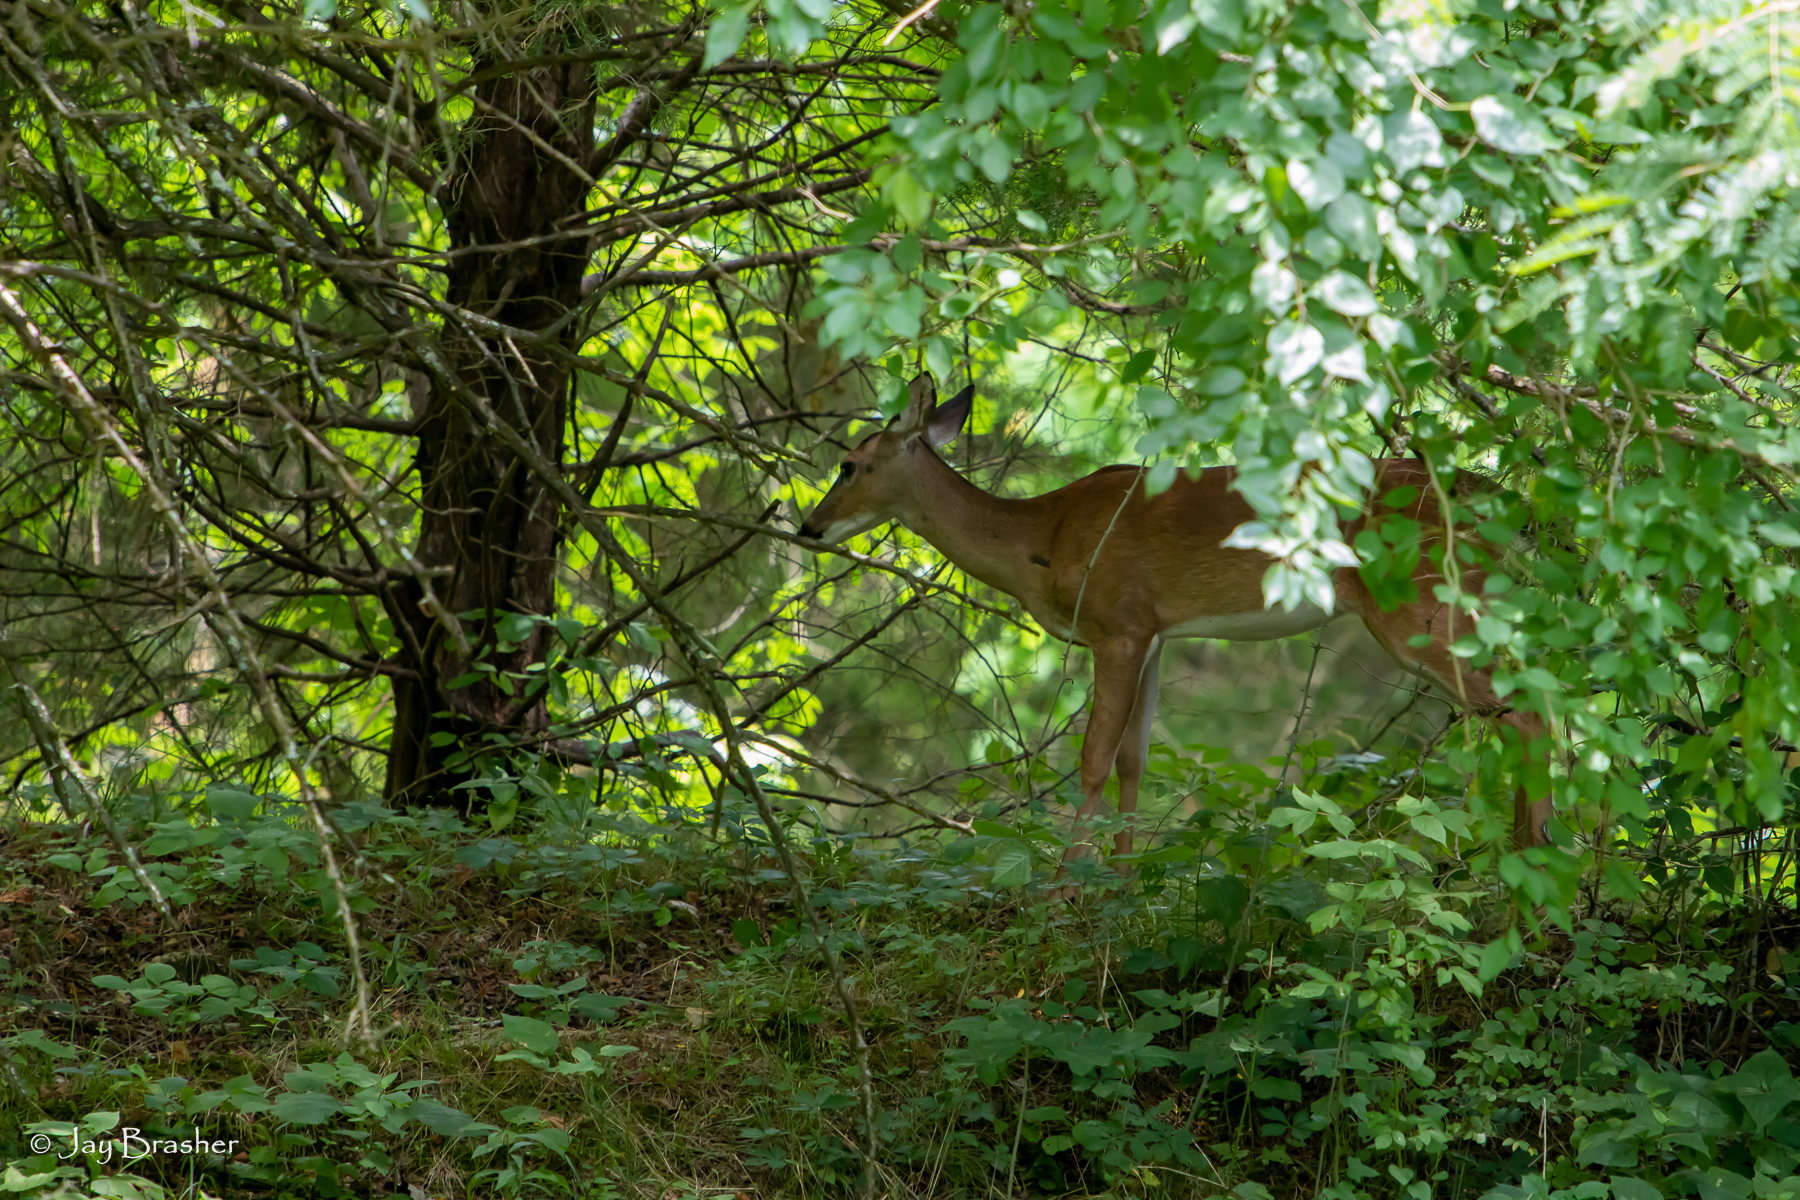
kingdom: Animalia
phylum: Chordata
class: Mammalia
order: Artiodactyla
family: Cervidae
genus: Odocoileus
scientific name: Odocoileus virginianus
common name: White-tailed deer
